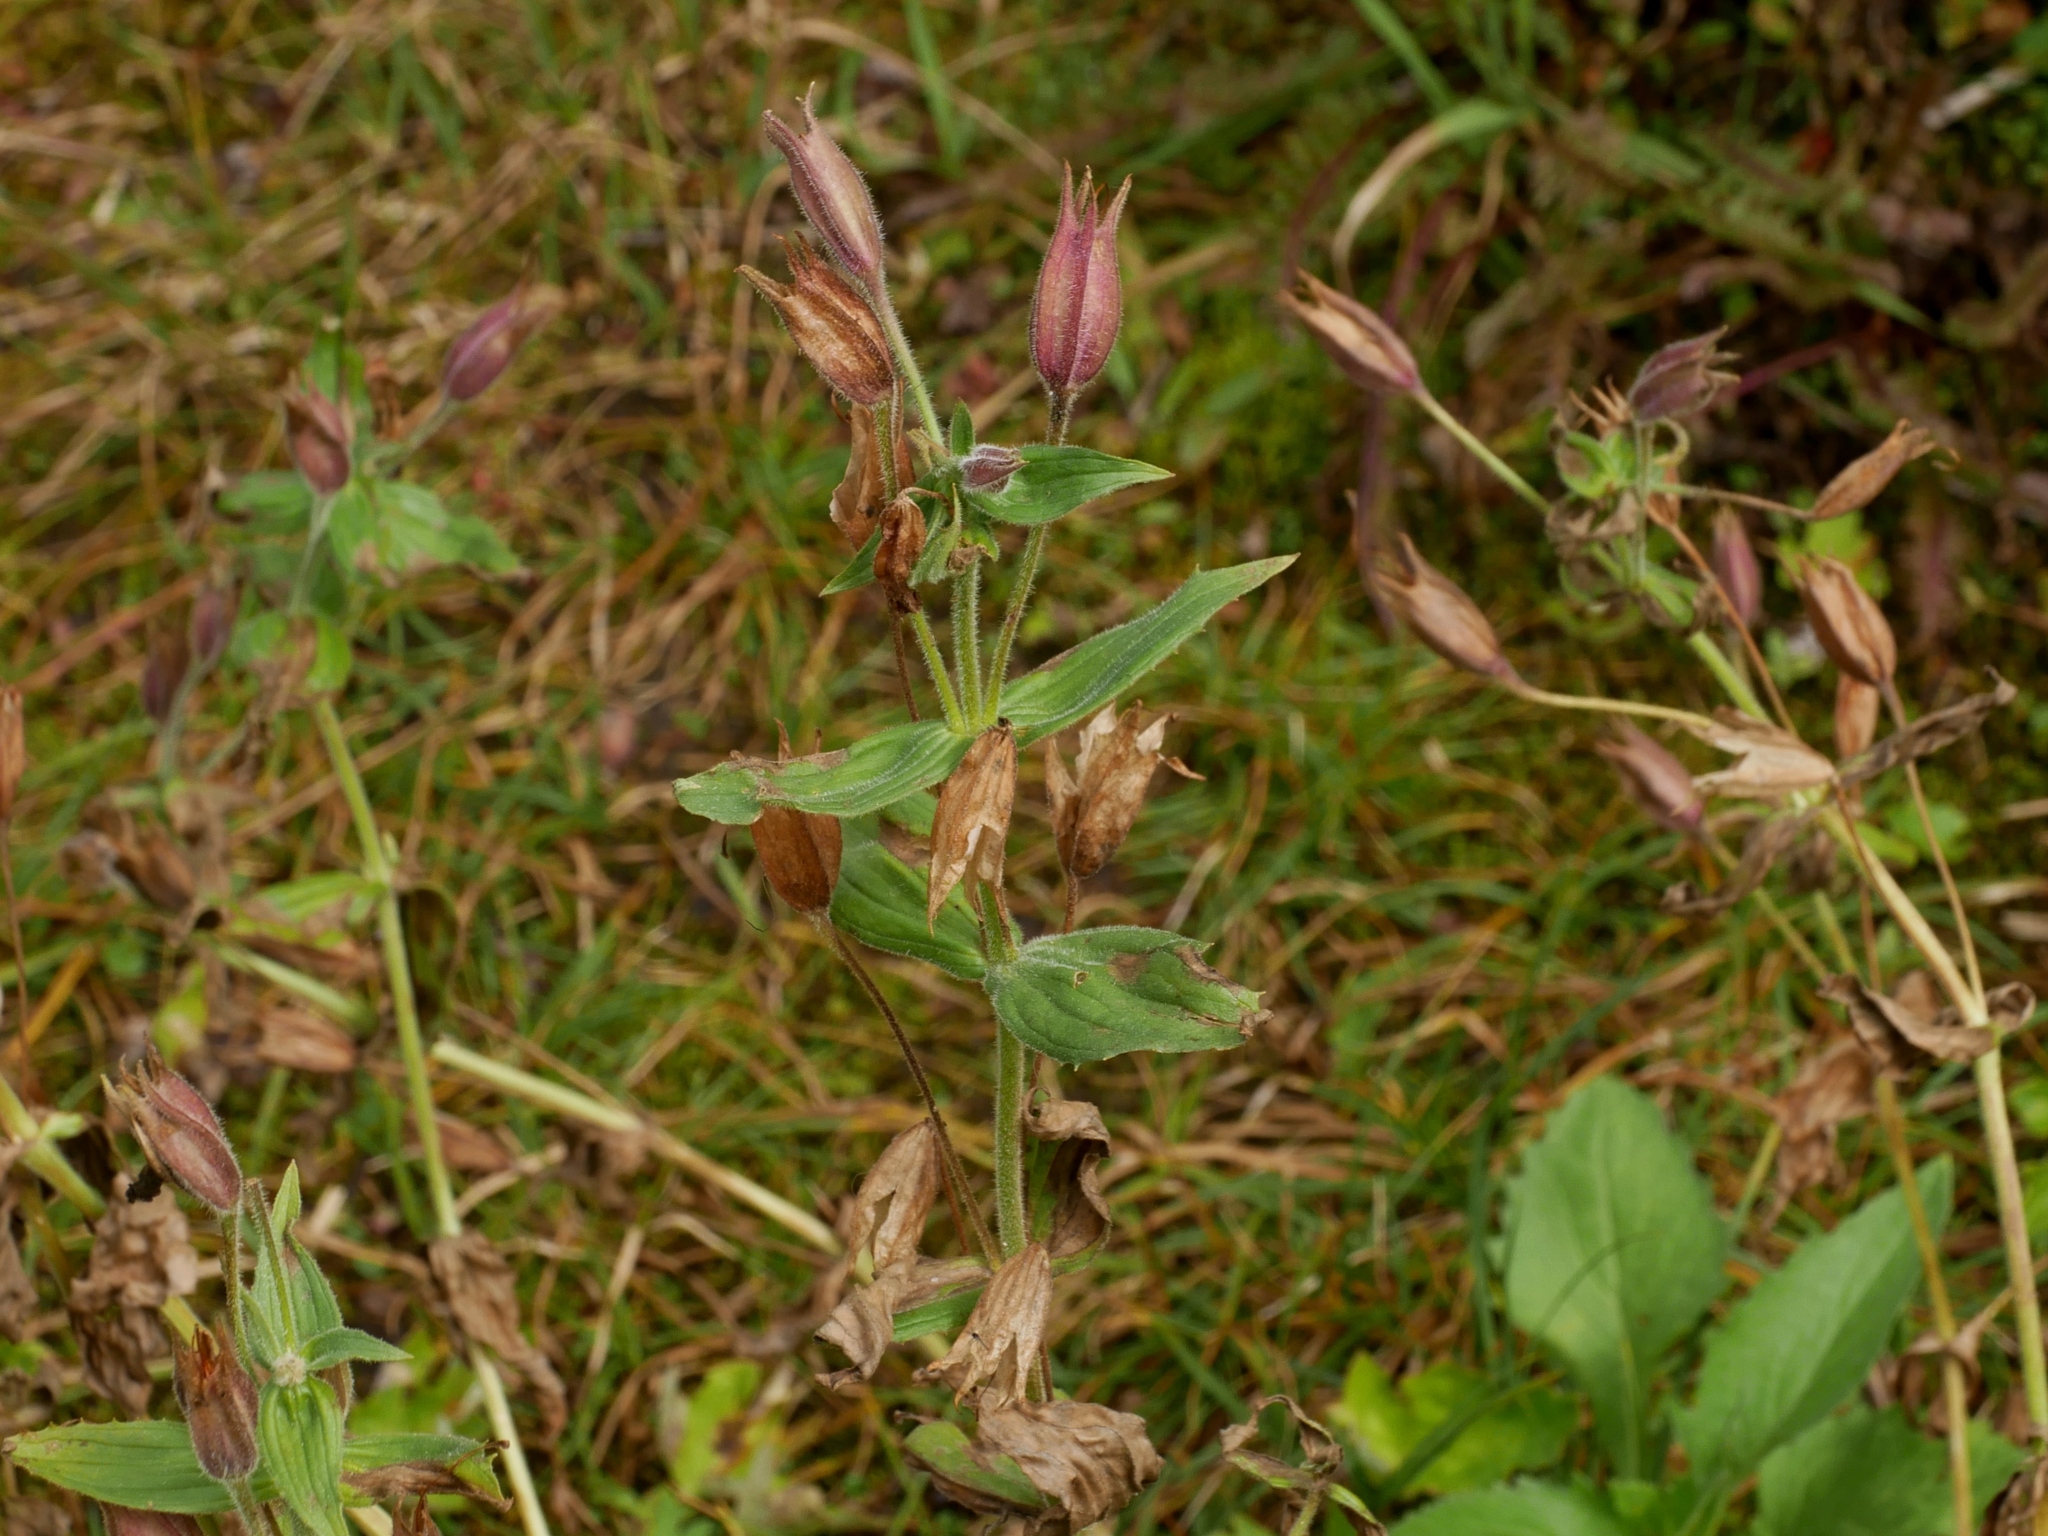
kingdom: Plantae
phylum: Tracheophyta
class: Magnoliopsida
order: Lamiales
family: Phrymaceae
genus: Erythranthe
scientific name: Erythranthe lewisii
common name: Lewis's monkey-flower
